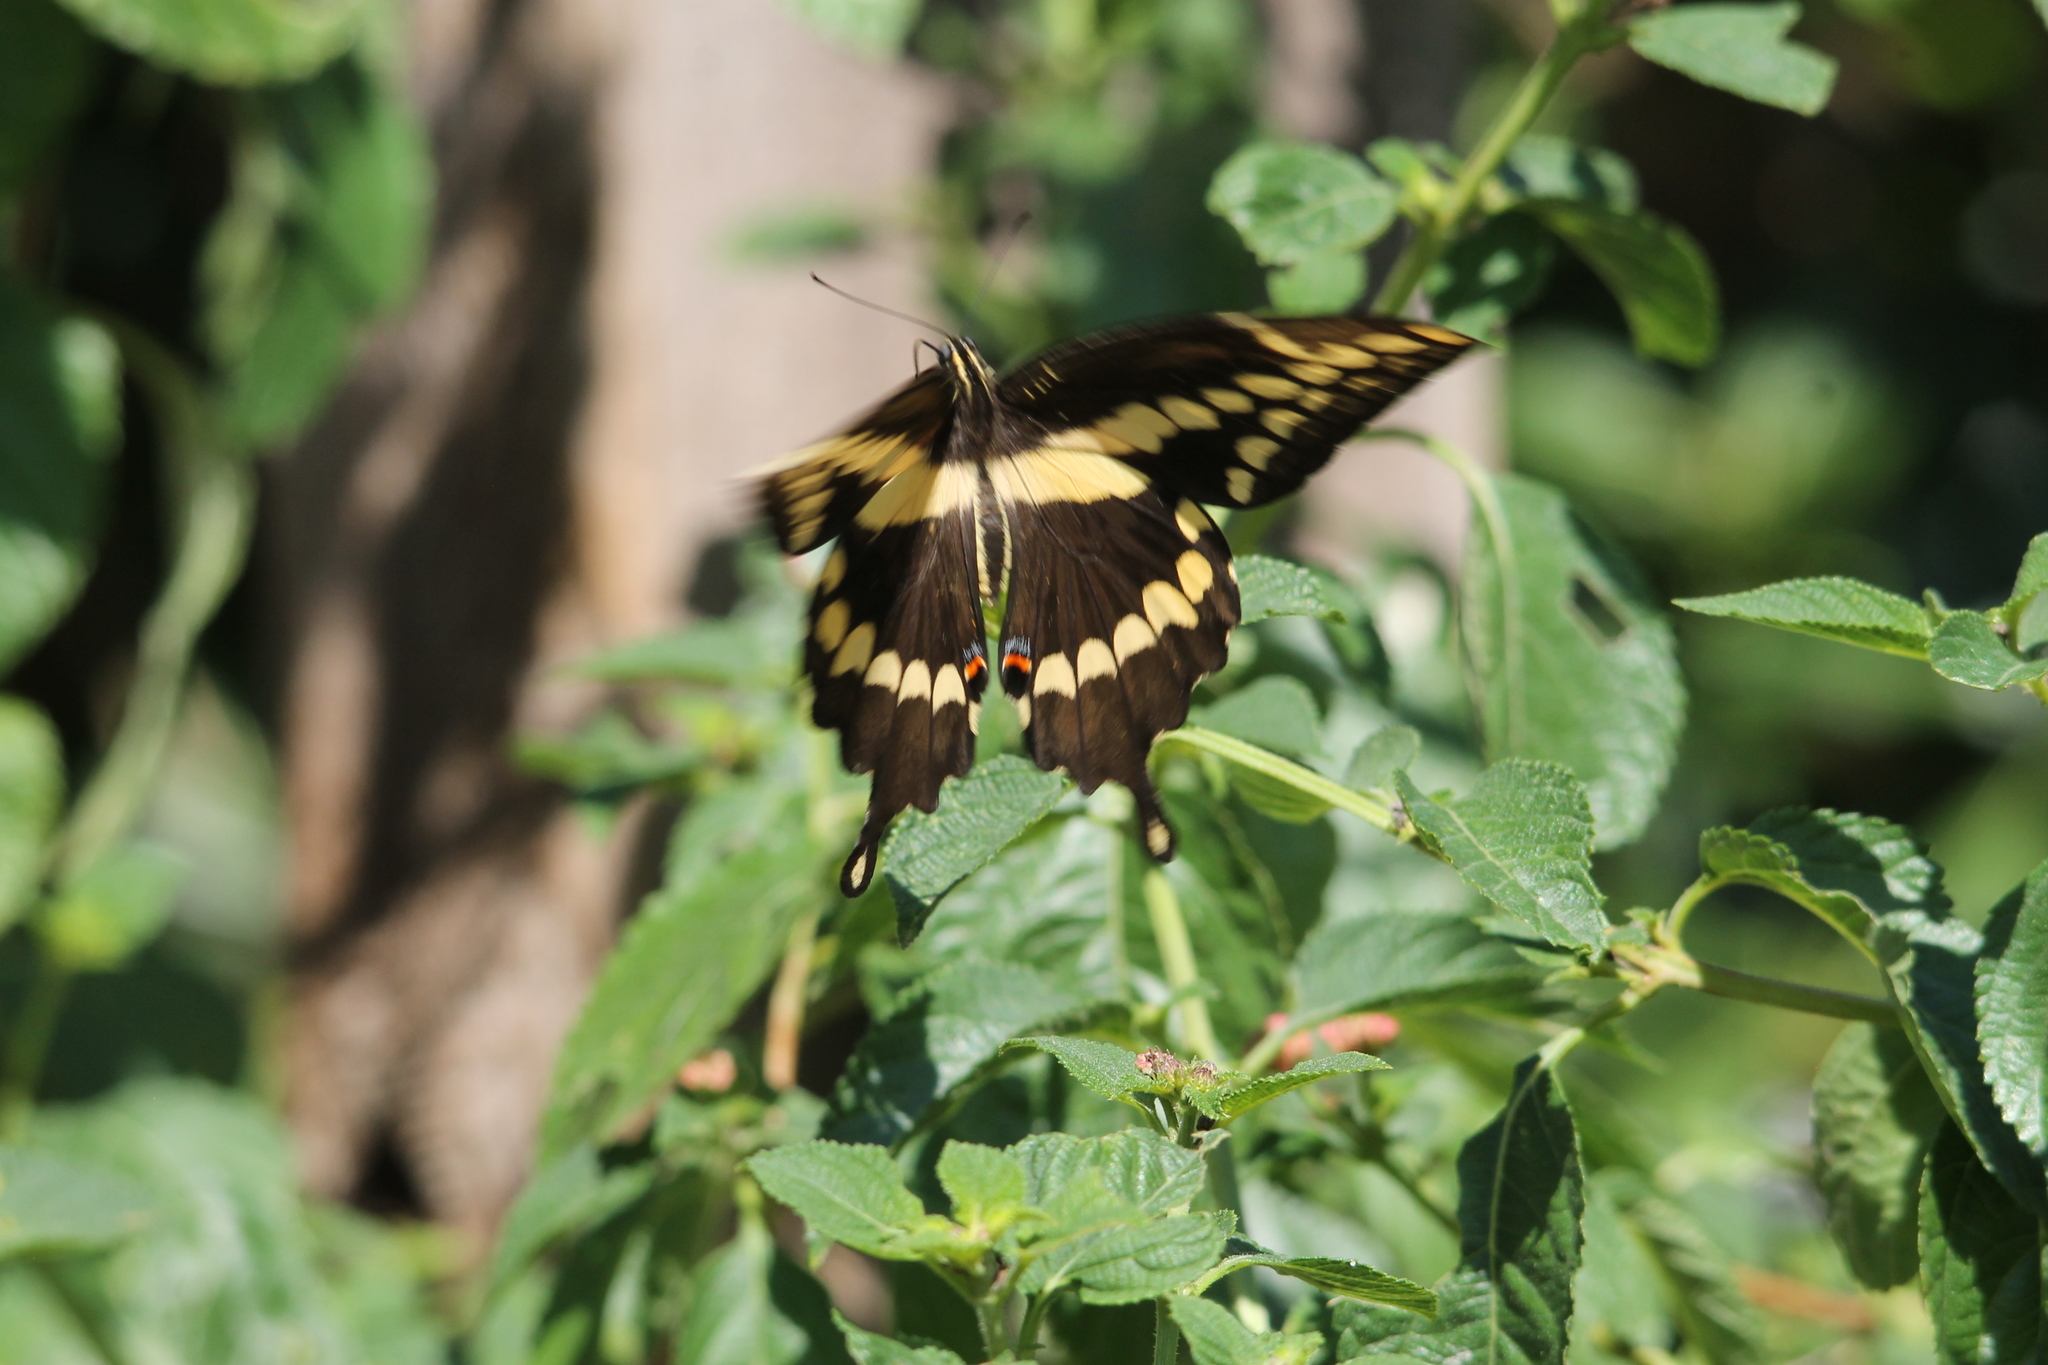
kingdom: Animalia
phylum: Arthropoda
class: Insecta
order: Lepidoptera
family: Papilionidae
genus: Papilio
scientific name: Papilio cresphontes
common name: Giant swallowtail
